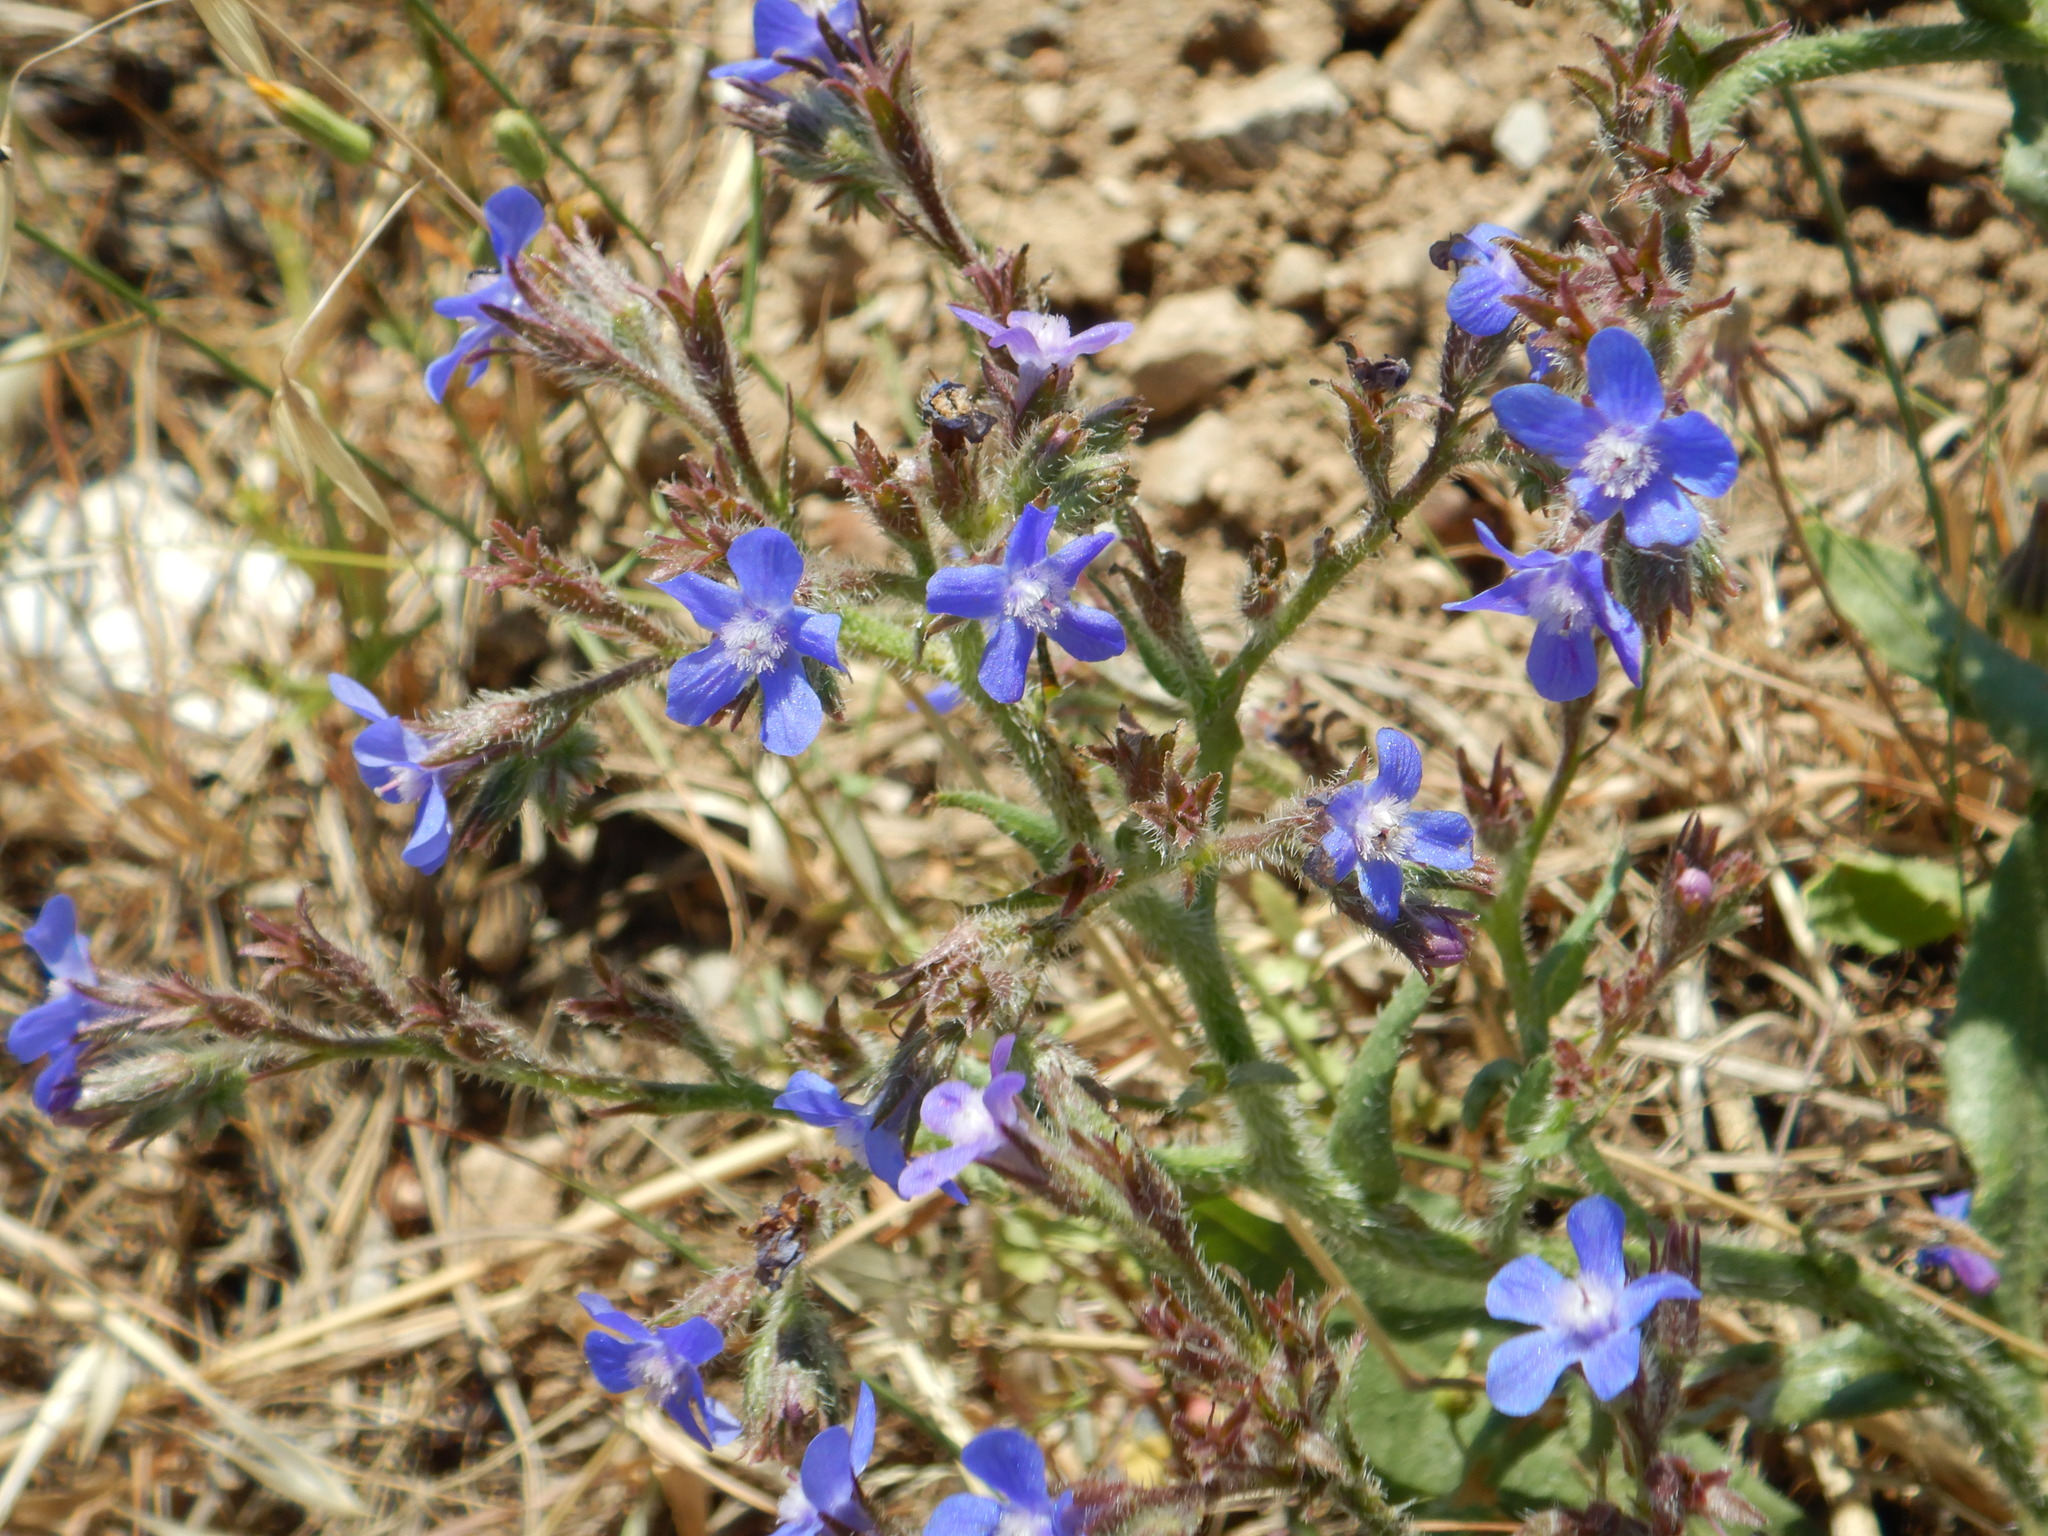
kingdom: Plantae
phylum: Tracheophyta
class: Magnoliopsida
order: Boraginales
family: Boraginaceae
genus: Anchusa
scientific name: Anchusa azurea
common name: Garden anchusa
